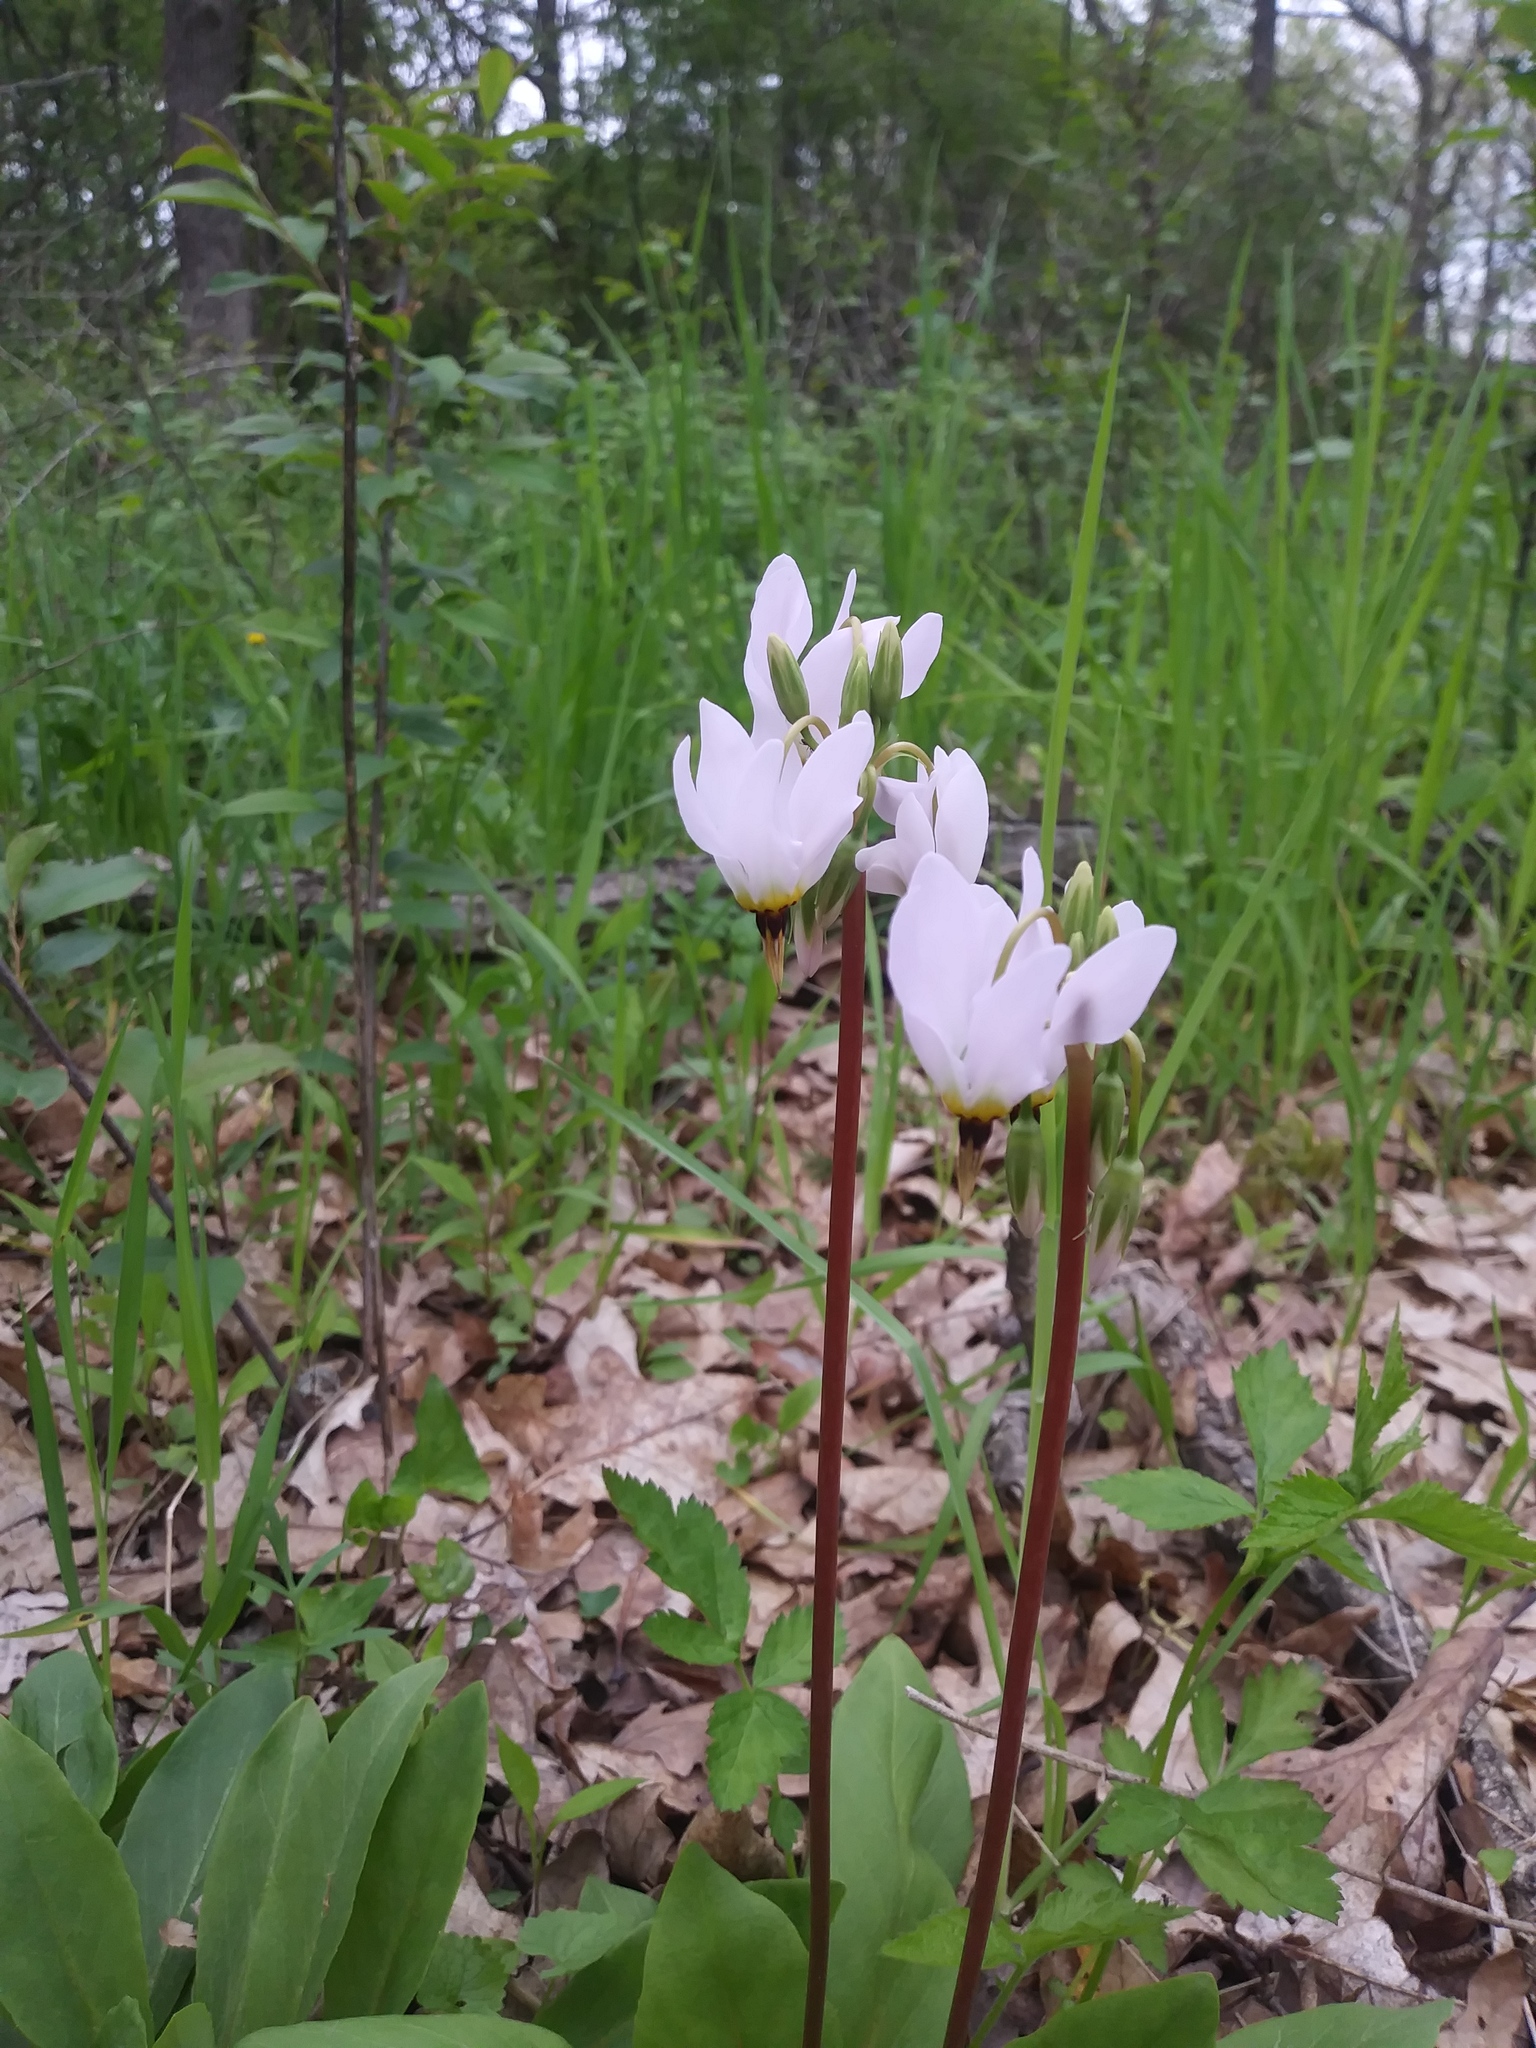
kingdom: Plantae
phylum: Tracheophyta
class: Magnoliopsida
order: Ericales
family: Primulaceae
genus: Dodecatheon
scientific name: Dodecatheon meadia
